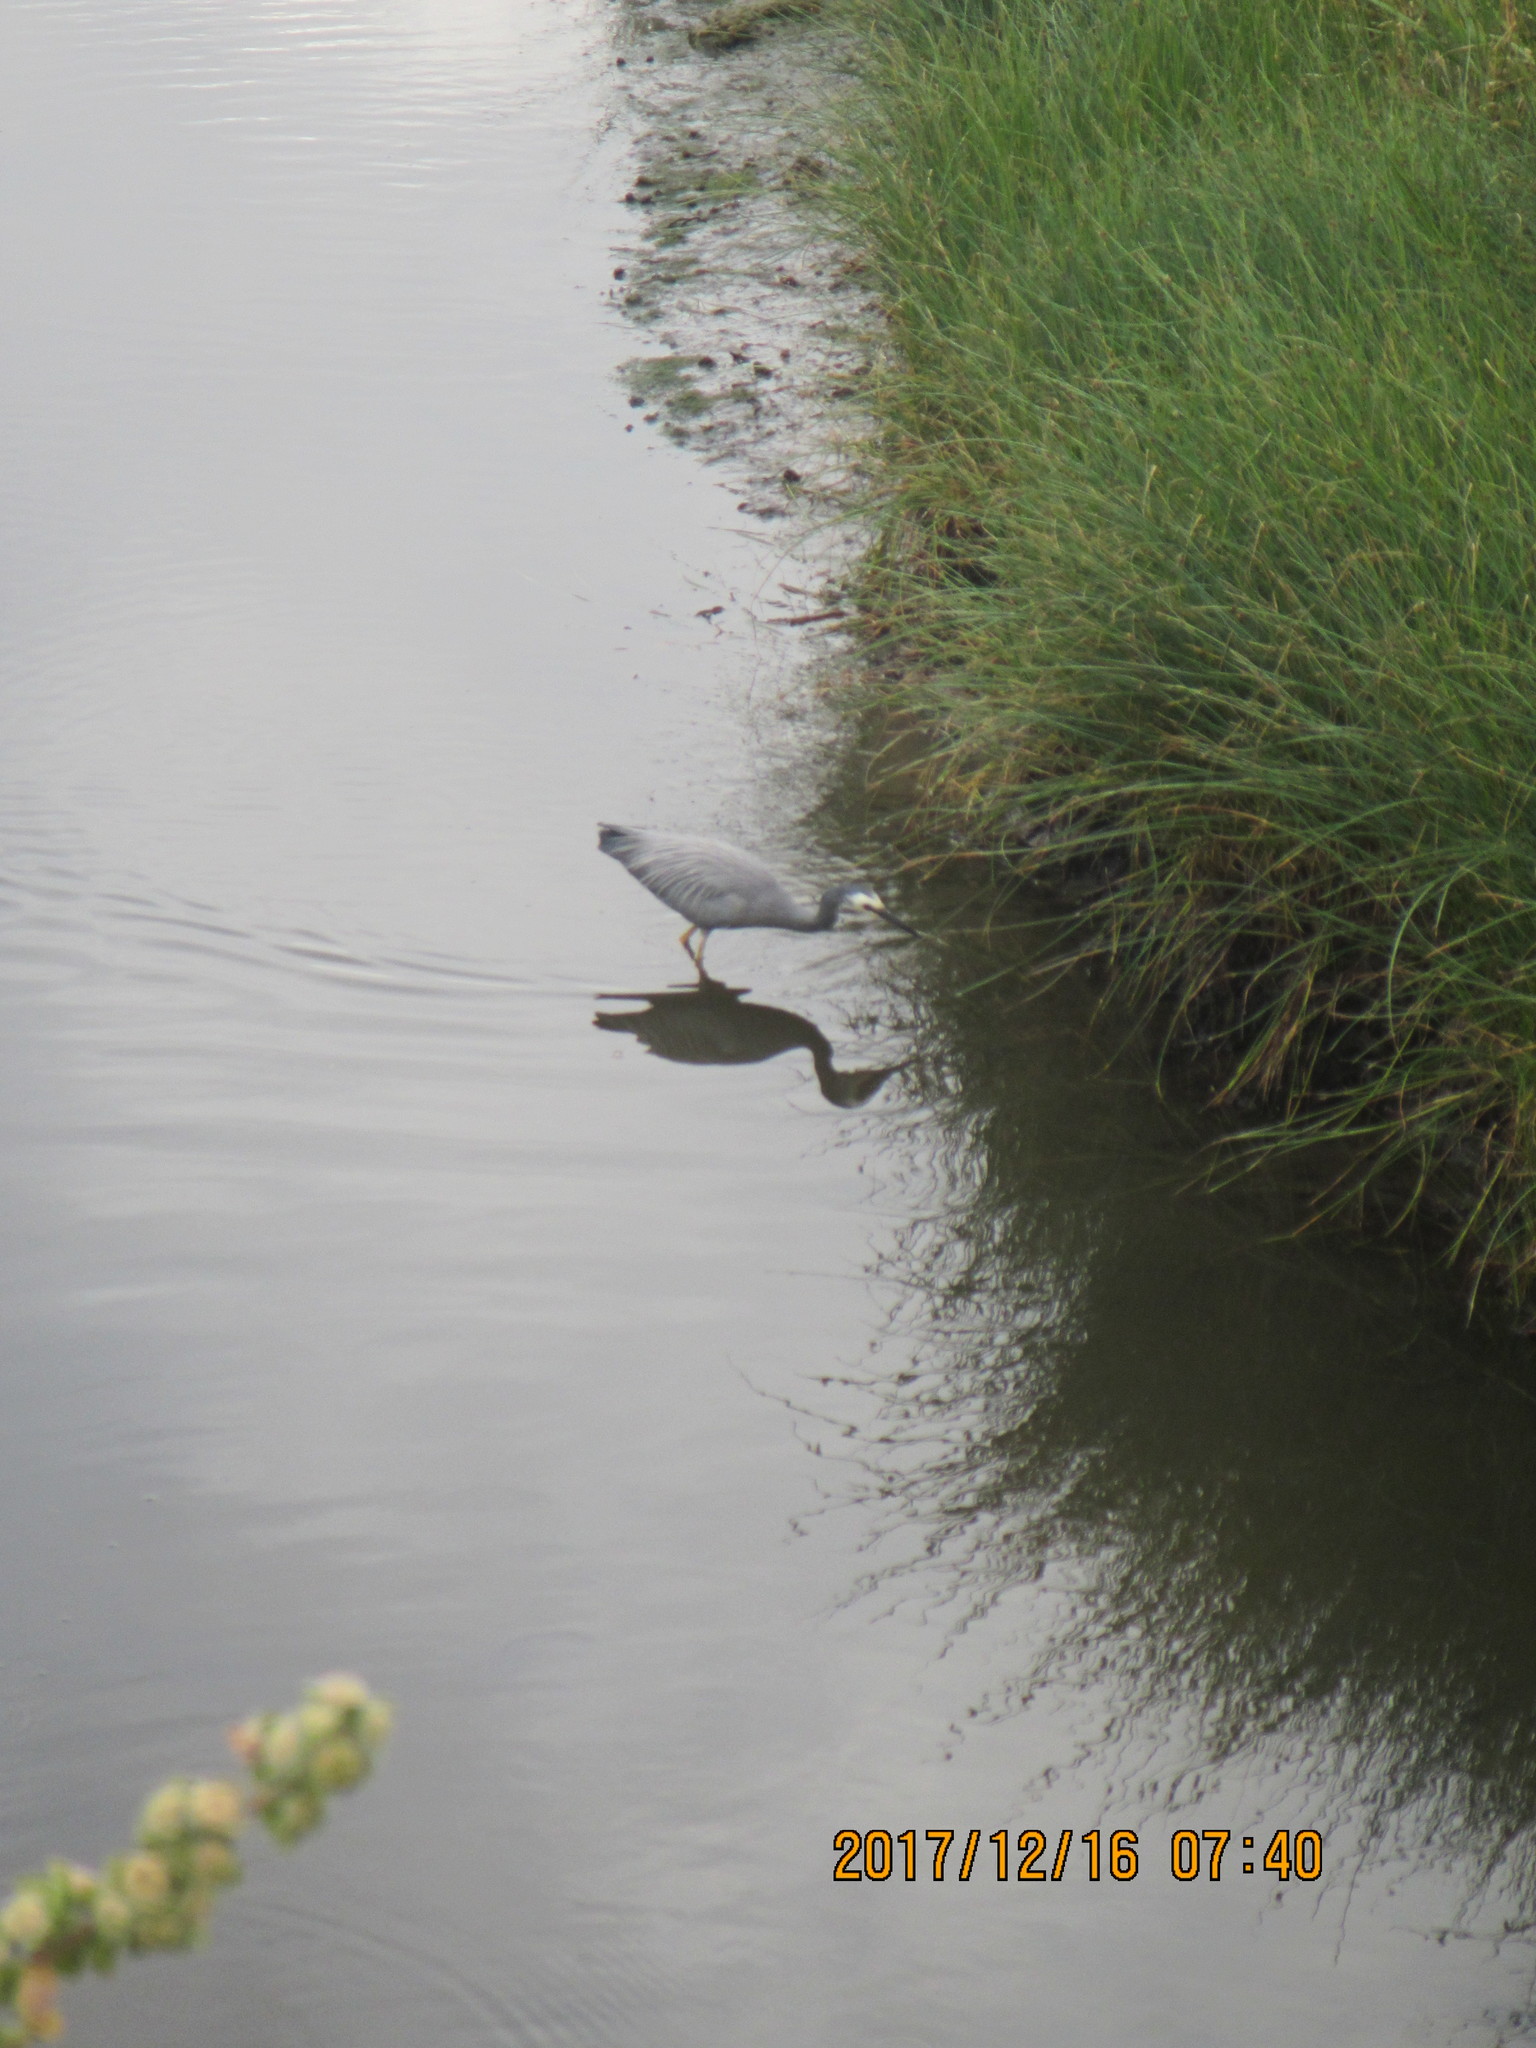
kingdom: Animalia
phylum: Chordata
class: Aves
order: Pelecaniformes
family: Ardeidae
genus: Egretta
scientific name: Egretta novaehollandiae
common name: White-faced heron
